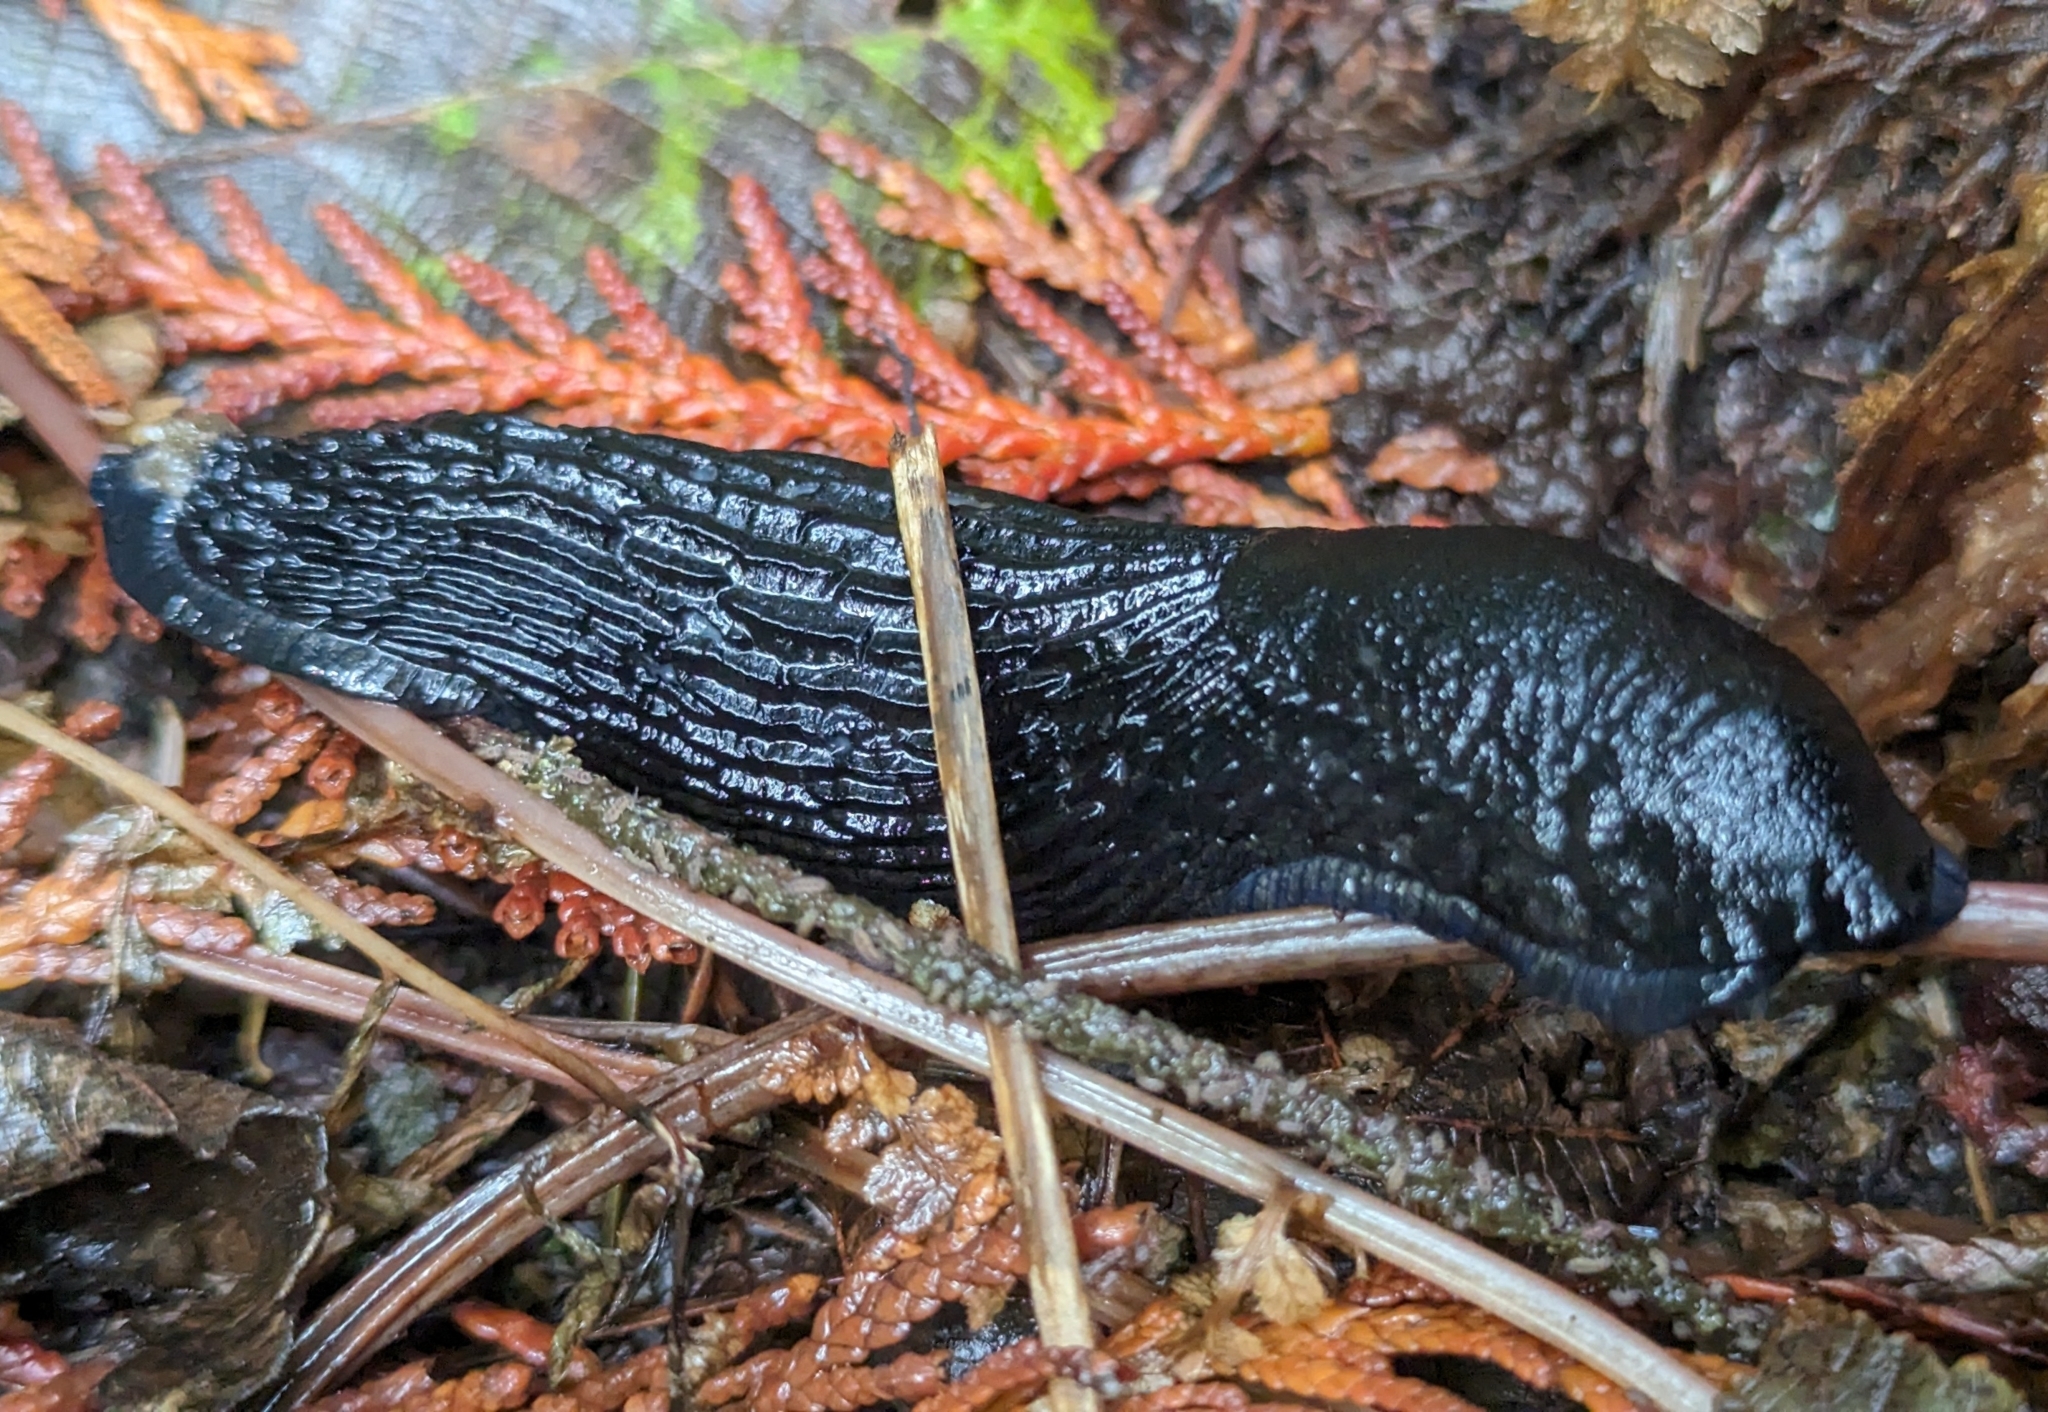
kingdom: Animalia
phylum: Mollusca
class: Gastropoda
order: Stylommatophora
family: Arionidae
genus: Arion
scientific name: Arion
